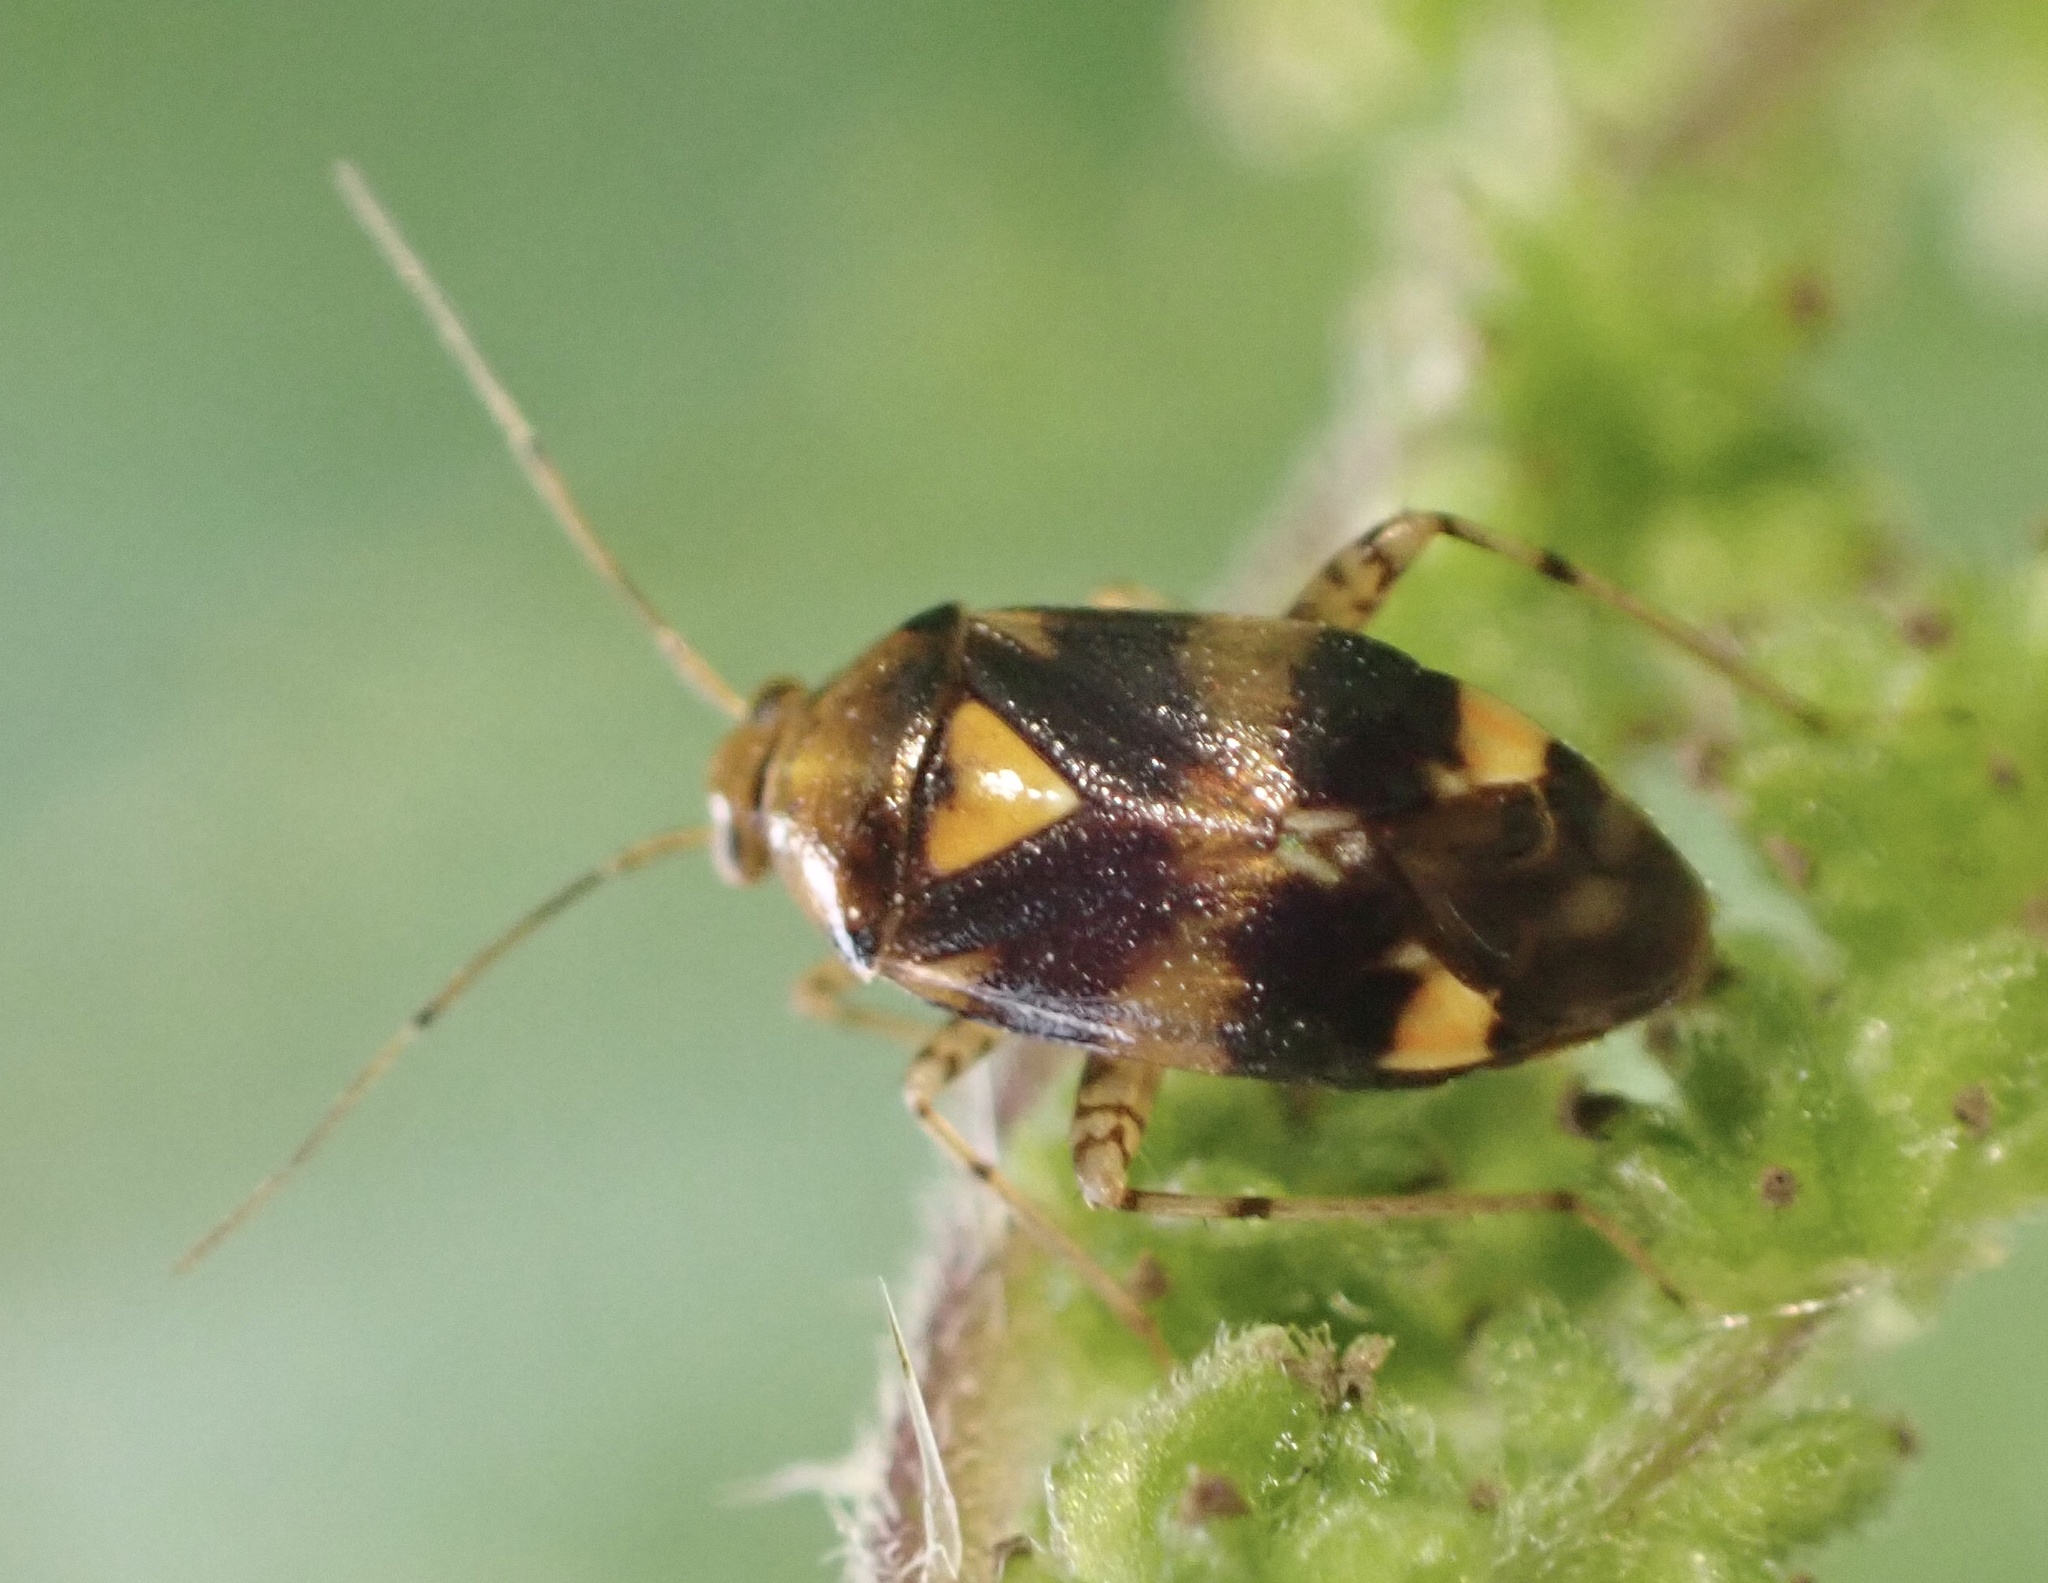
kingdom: Animalia
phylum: Arthropoda
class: Insecta
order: Hemiptera
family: Miridae
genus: Liocoris
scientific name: Liocoris tripustulatus
